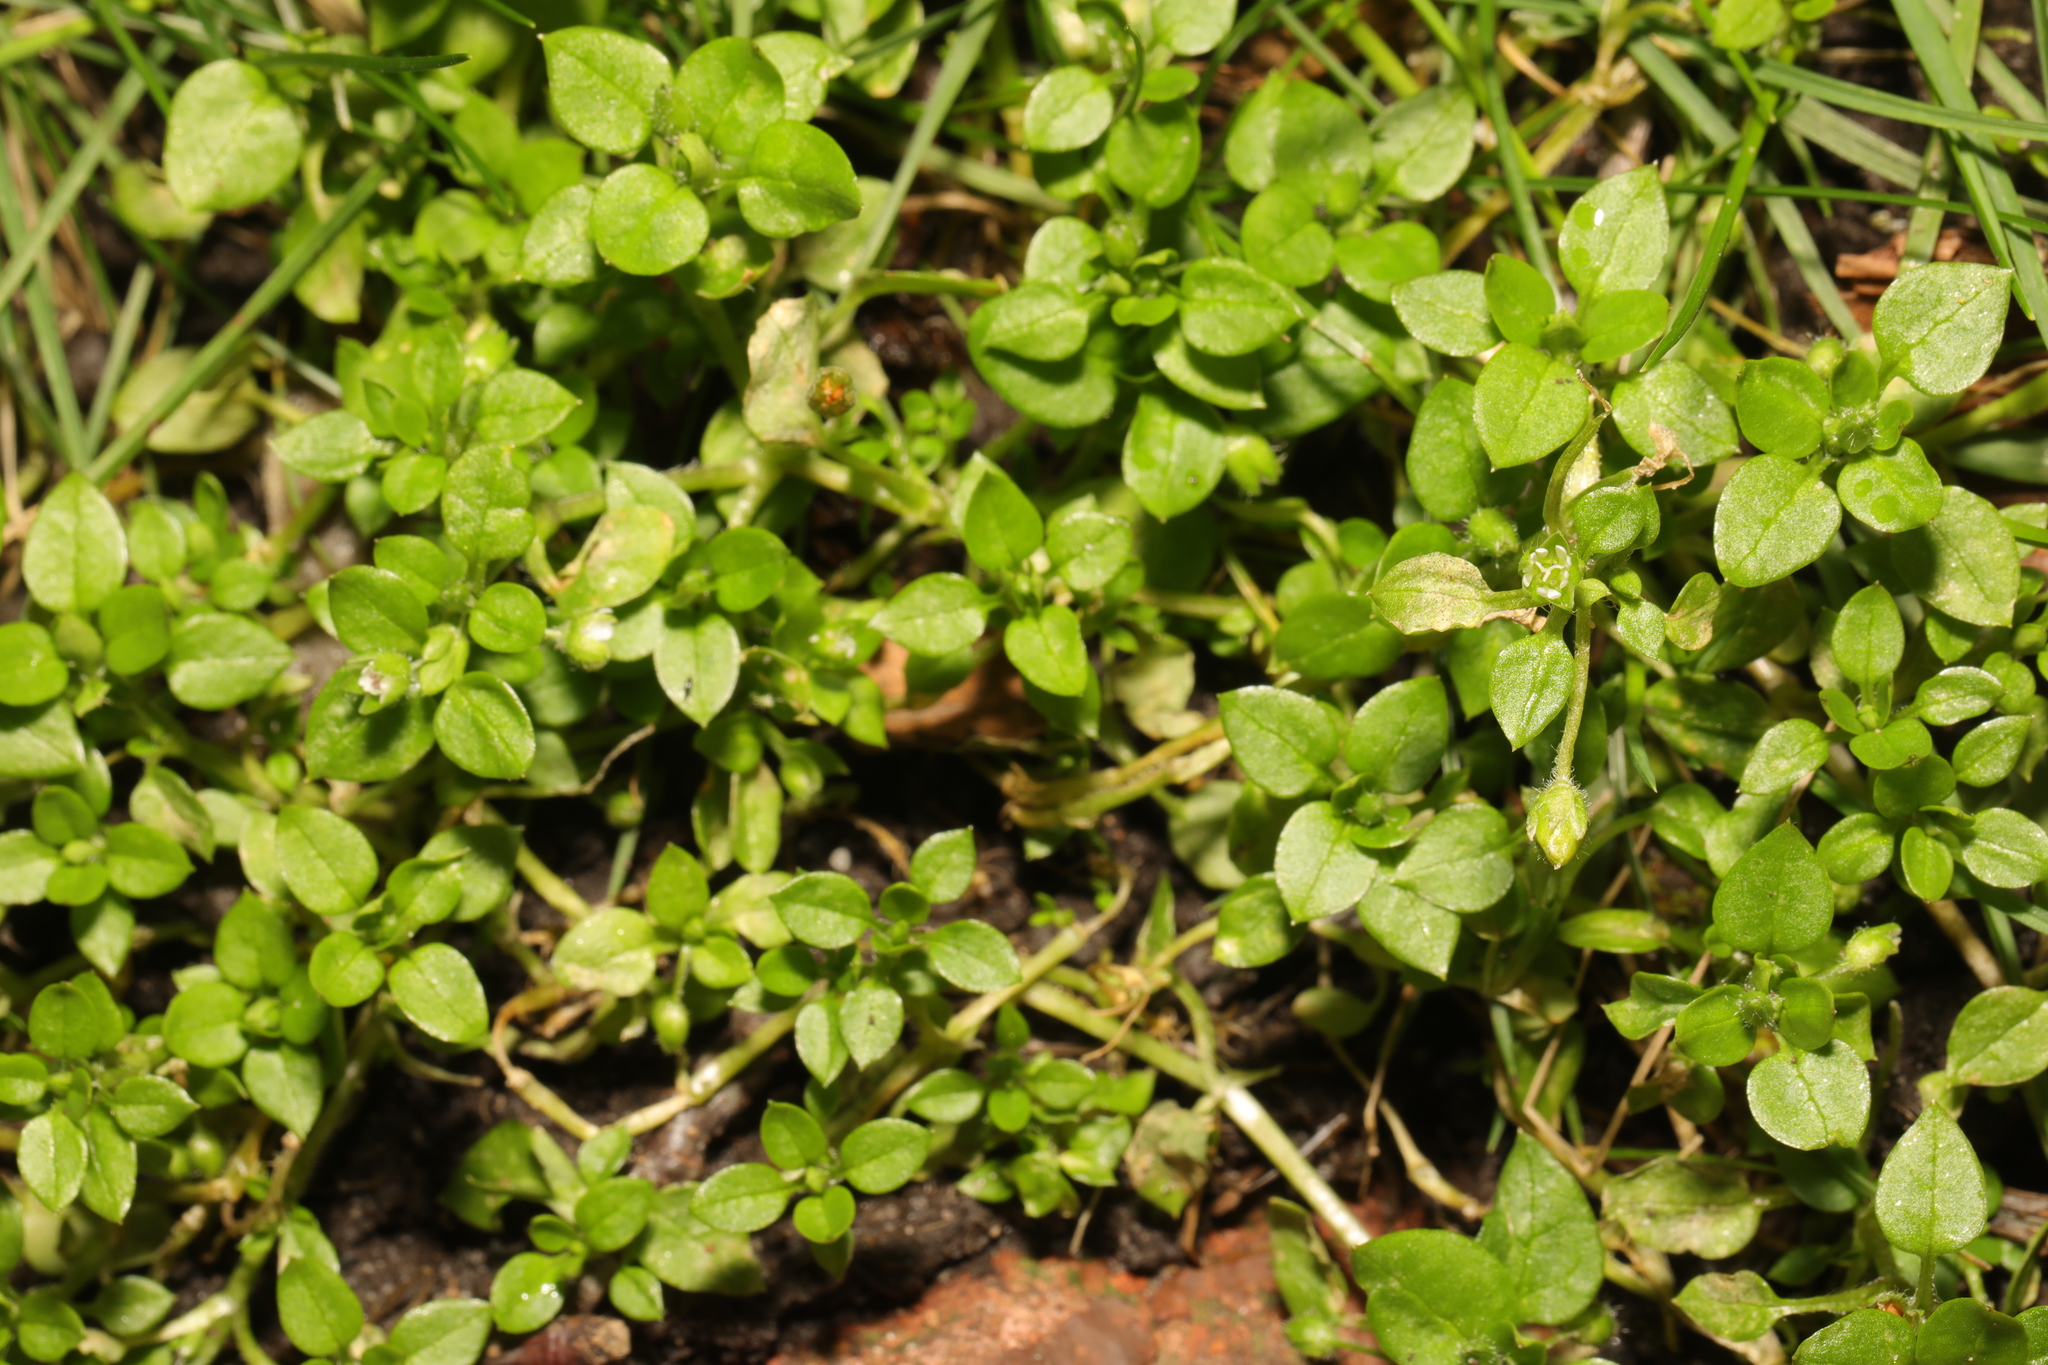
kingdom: Plantae
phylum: Tracheophyta
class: Magnoliopsida
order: Caryophyllales
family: Caryophyllaceae
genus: Stellaria
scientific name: Stellaria media
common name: Common chickweed
